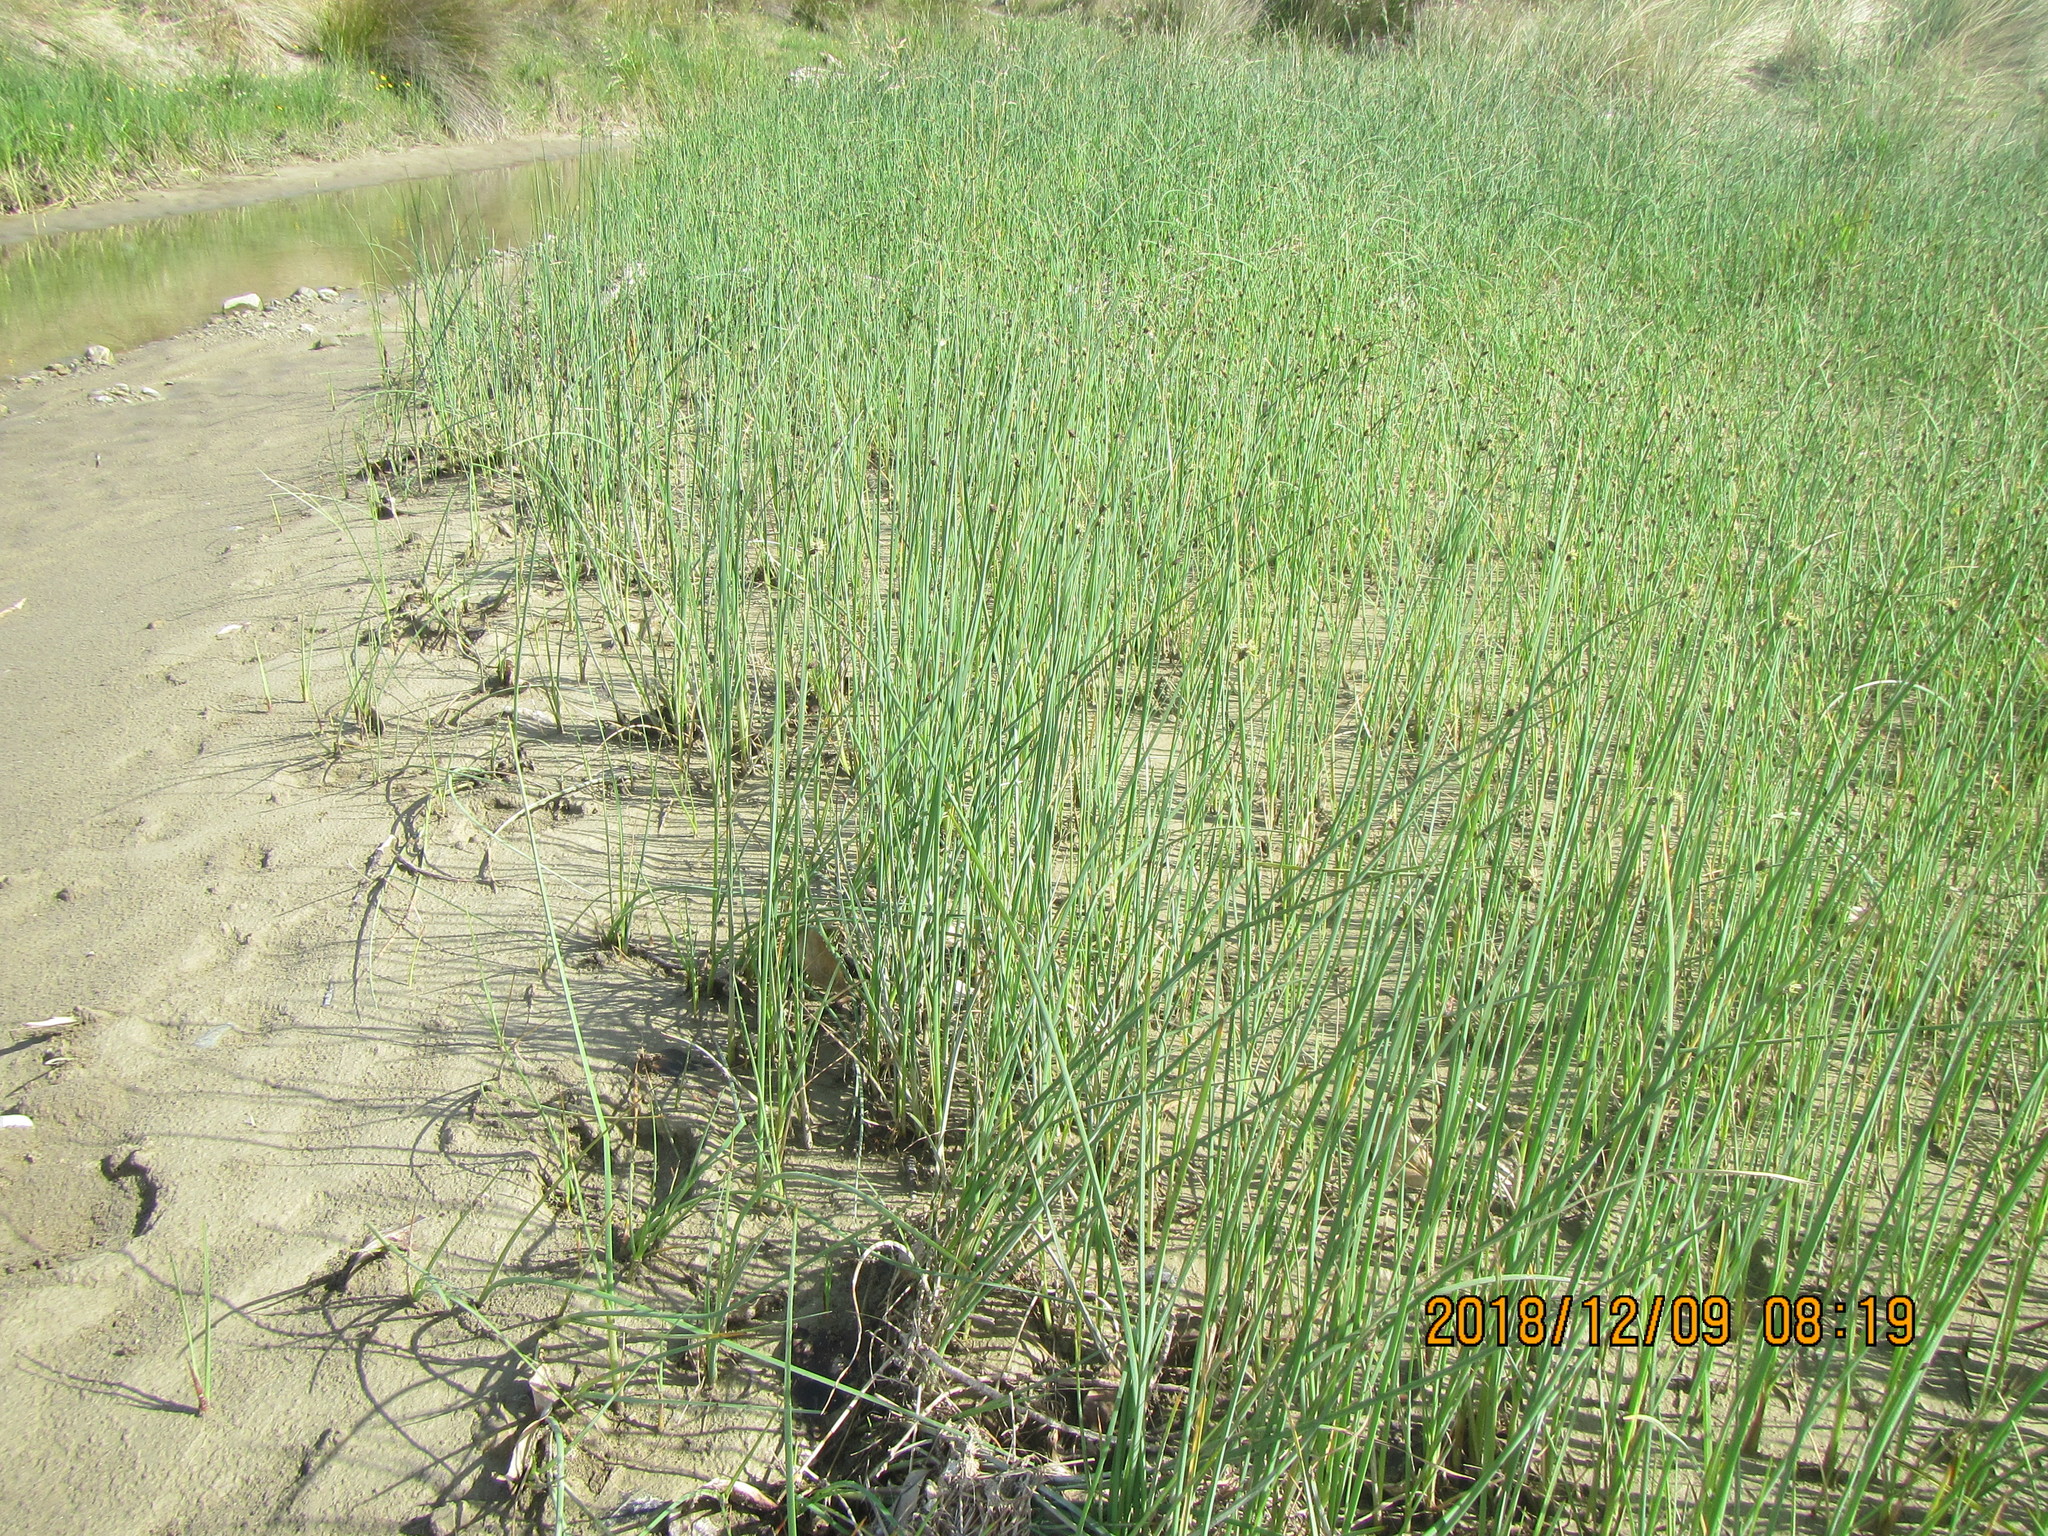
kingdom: Plantae
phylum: Tracheophyta
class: Liliopsida
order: Poales
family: Cyperaceae
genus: Schoenoplectus
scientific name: Schoenoplectus pungens
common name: Sharp club-rush
